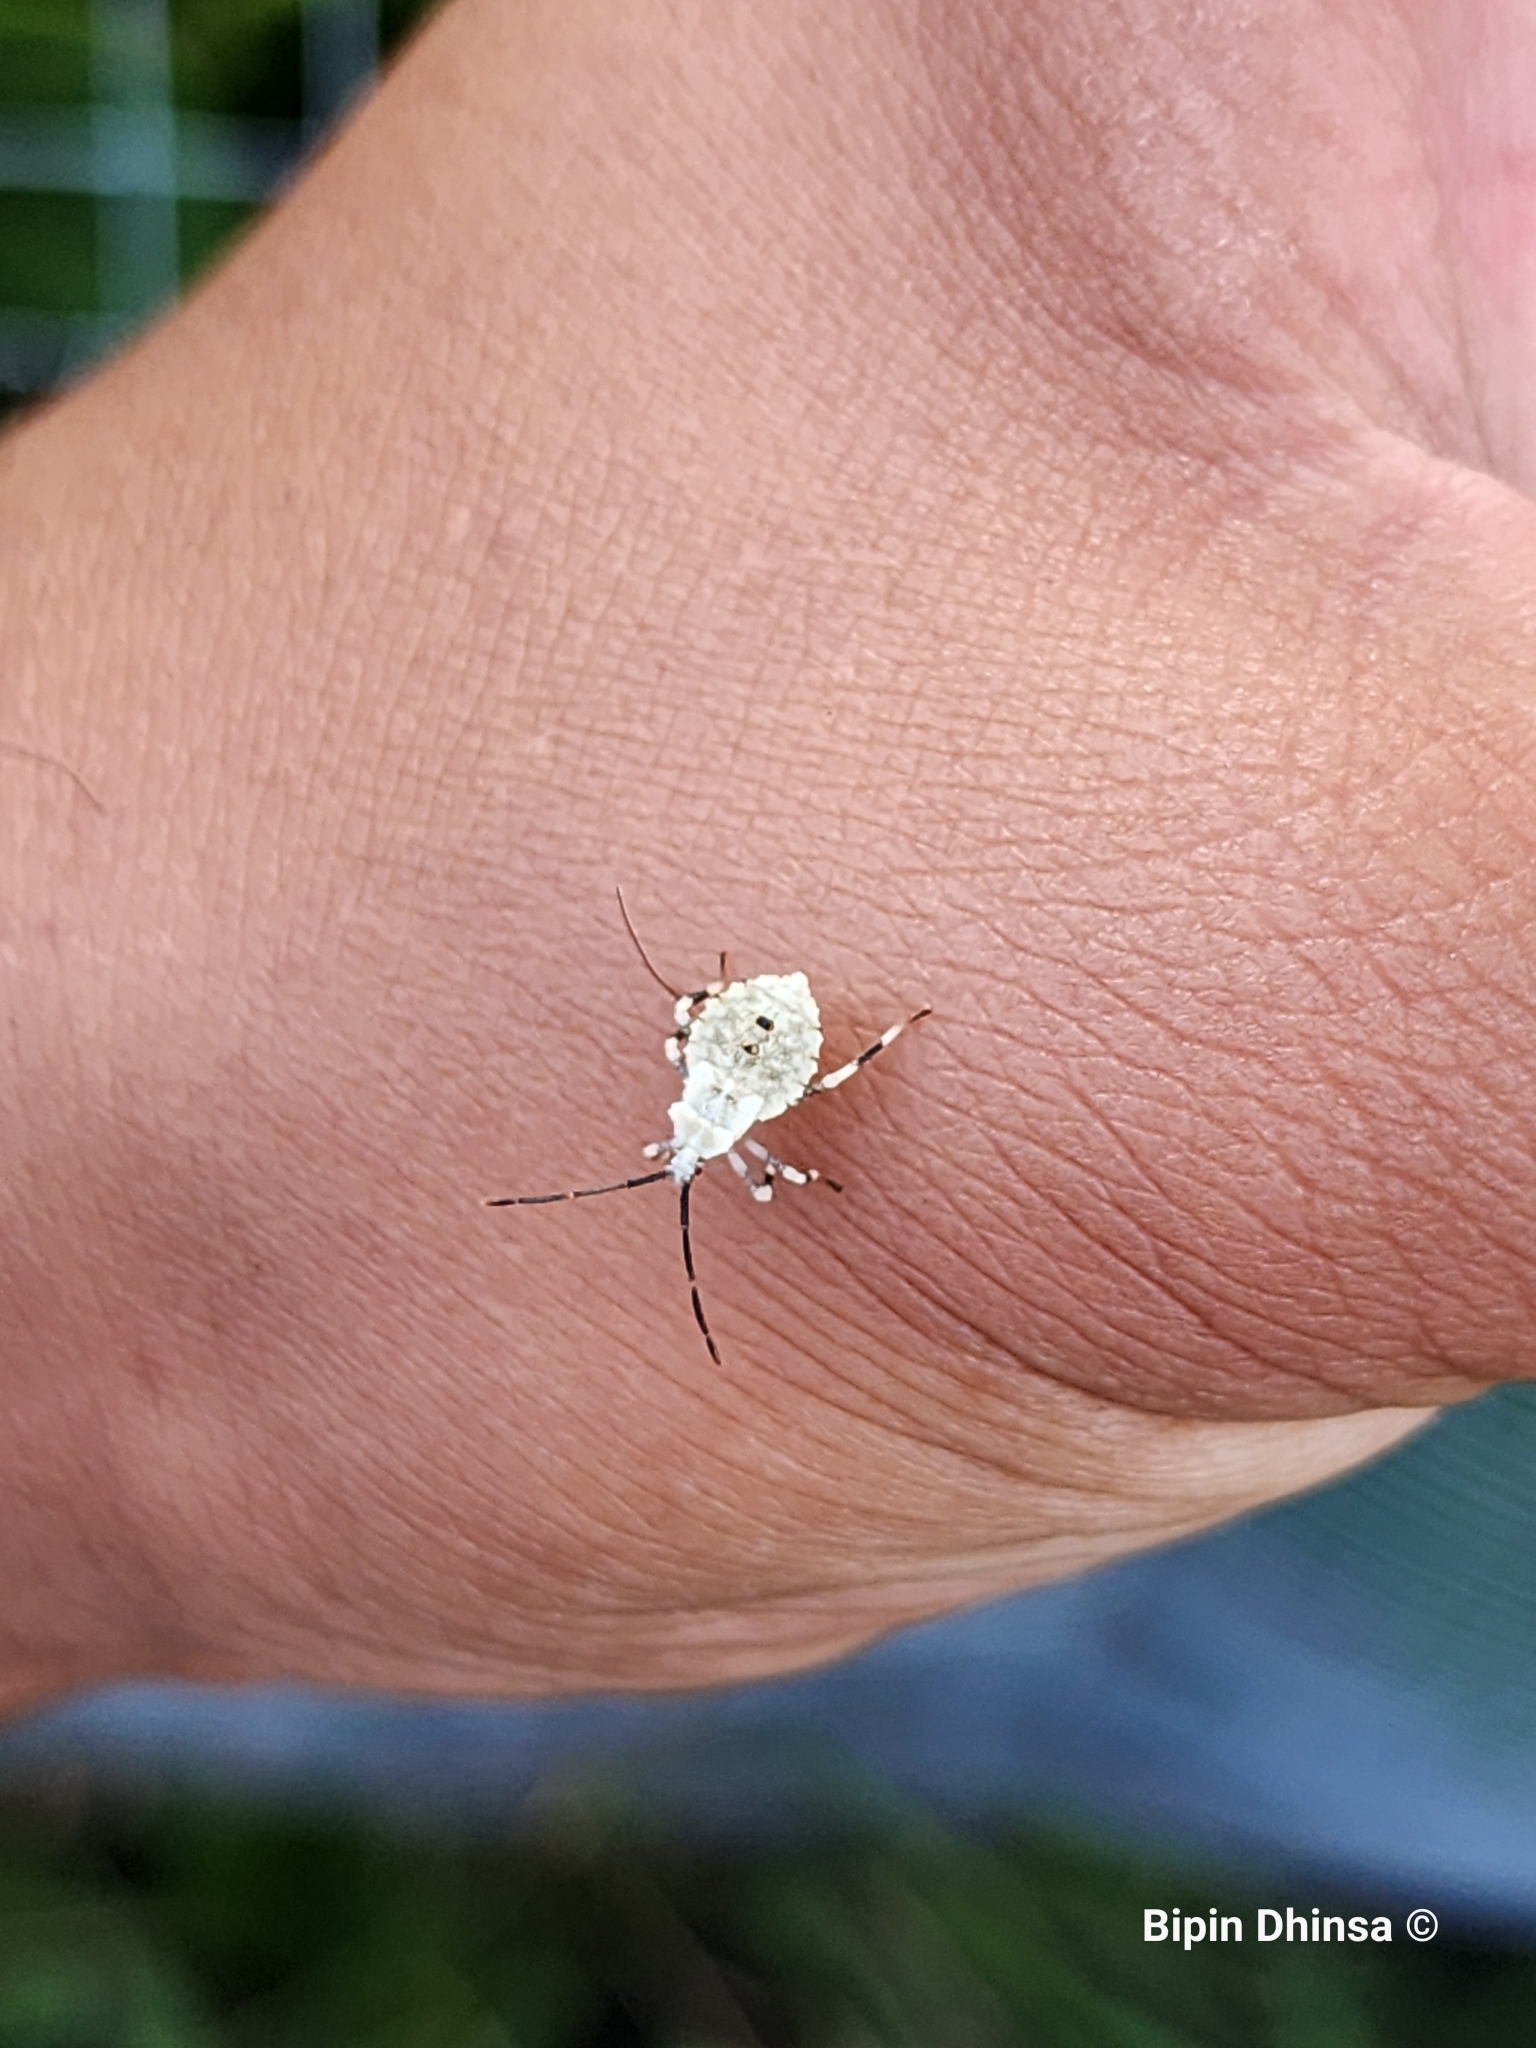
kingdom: Animalia
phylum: Arthropoda
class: Insecta
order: Hemiptera
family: Coreidae
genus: Anasa
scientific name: Anasa armigera
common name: Horned squash bug
